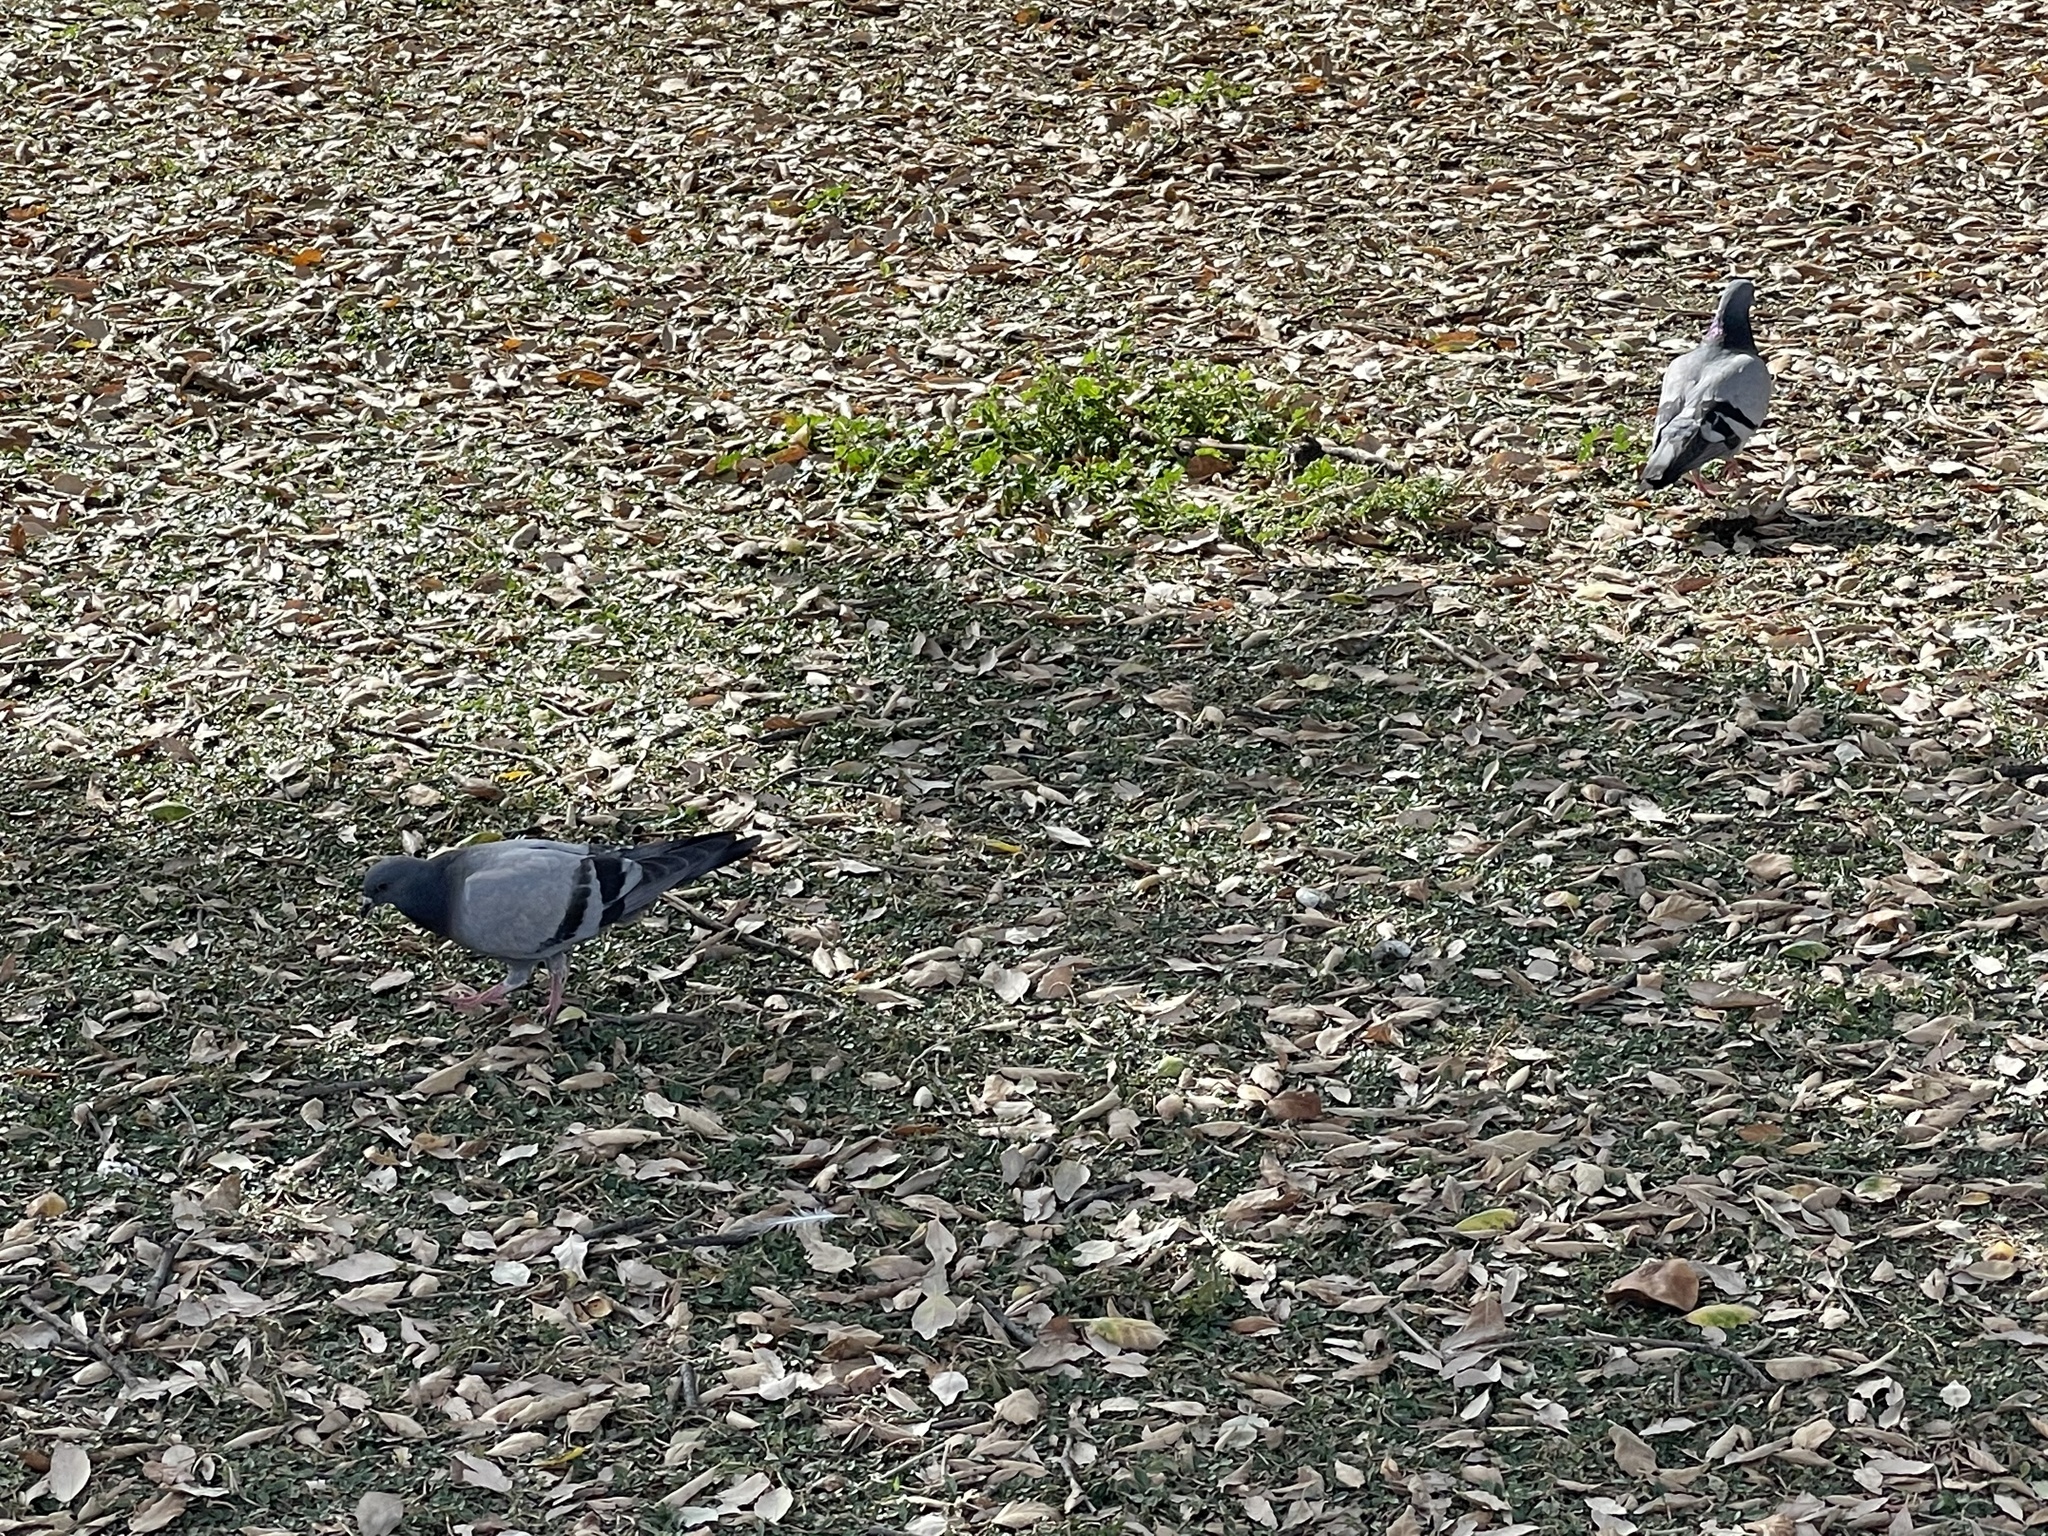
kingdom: Animalia
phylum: Chordata
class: Aves
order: Columbiformes
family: Columbidae
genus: Columba
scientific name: Columba livia
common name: Rock pigeon
